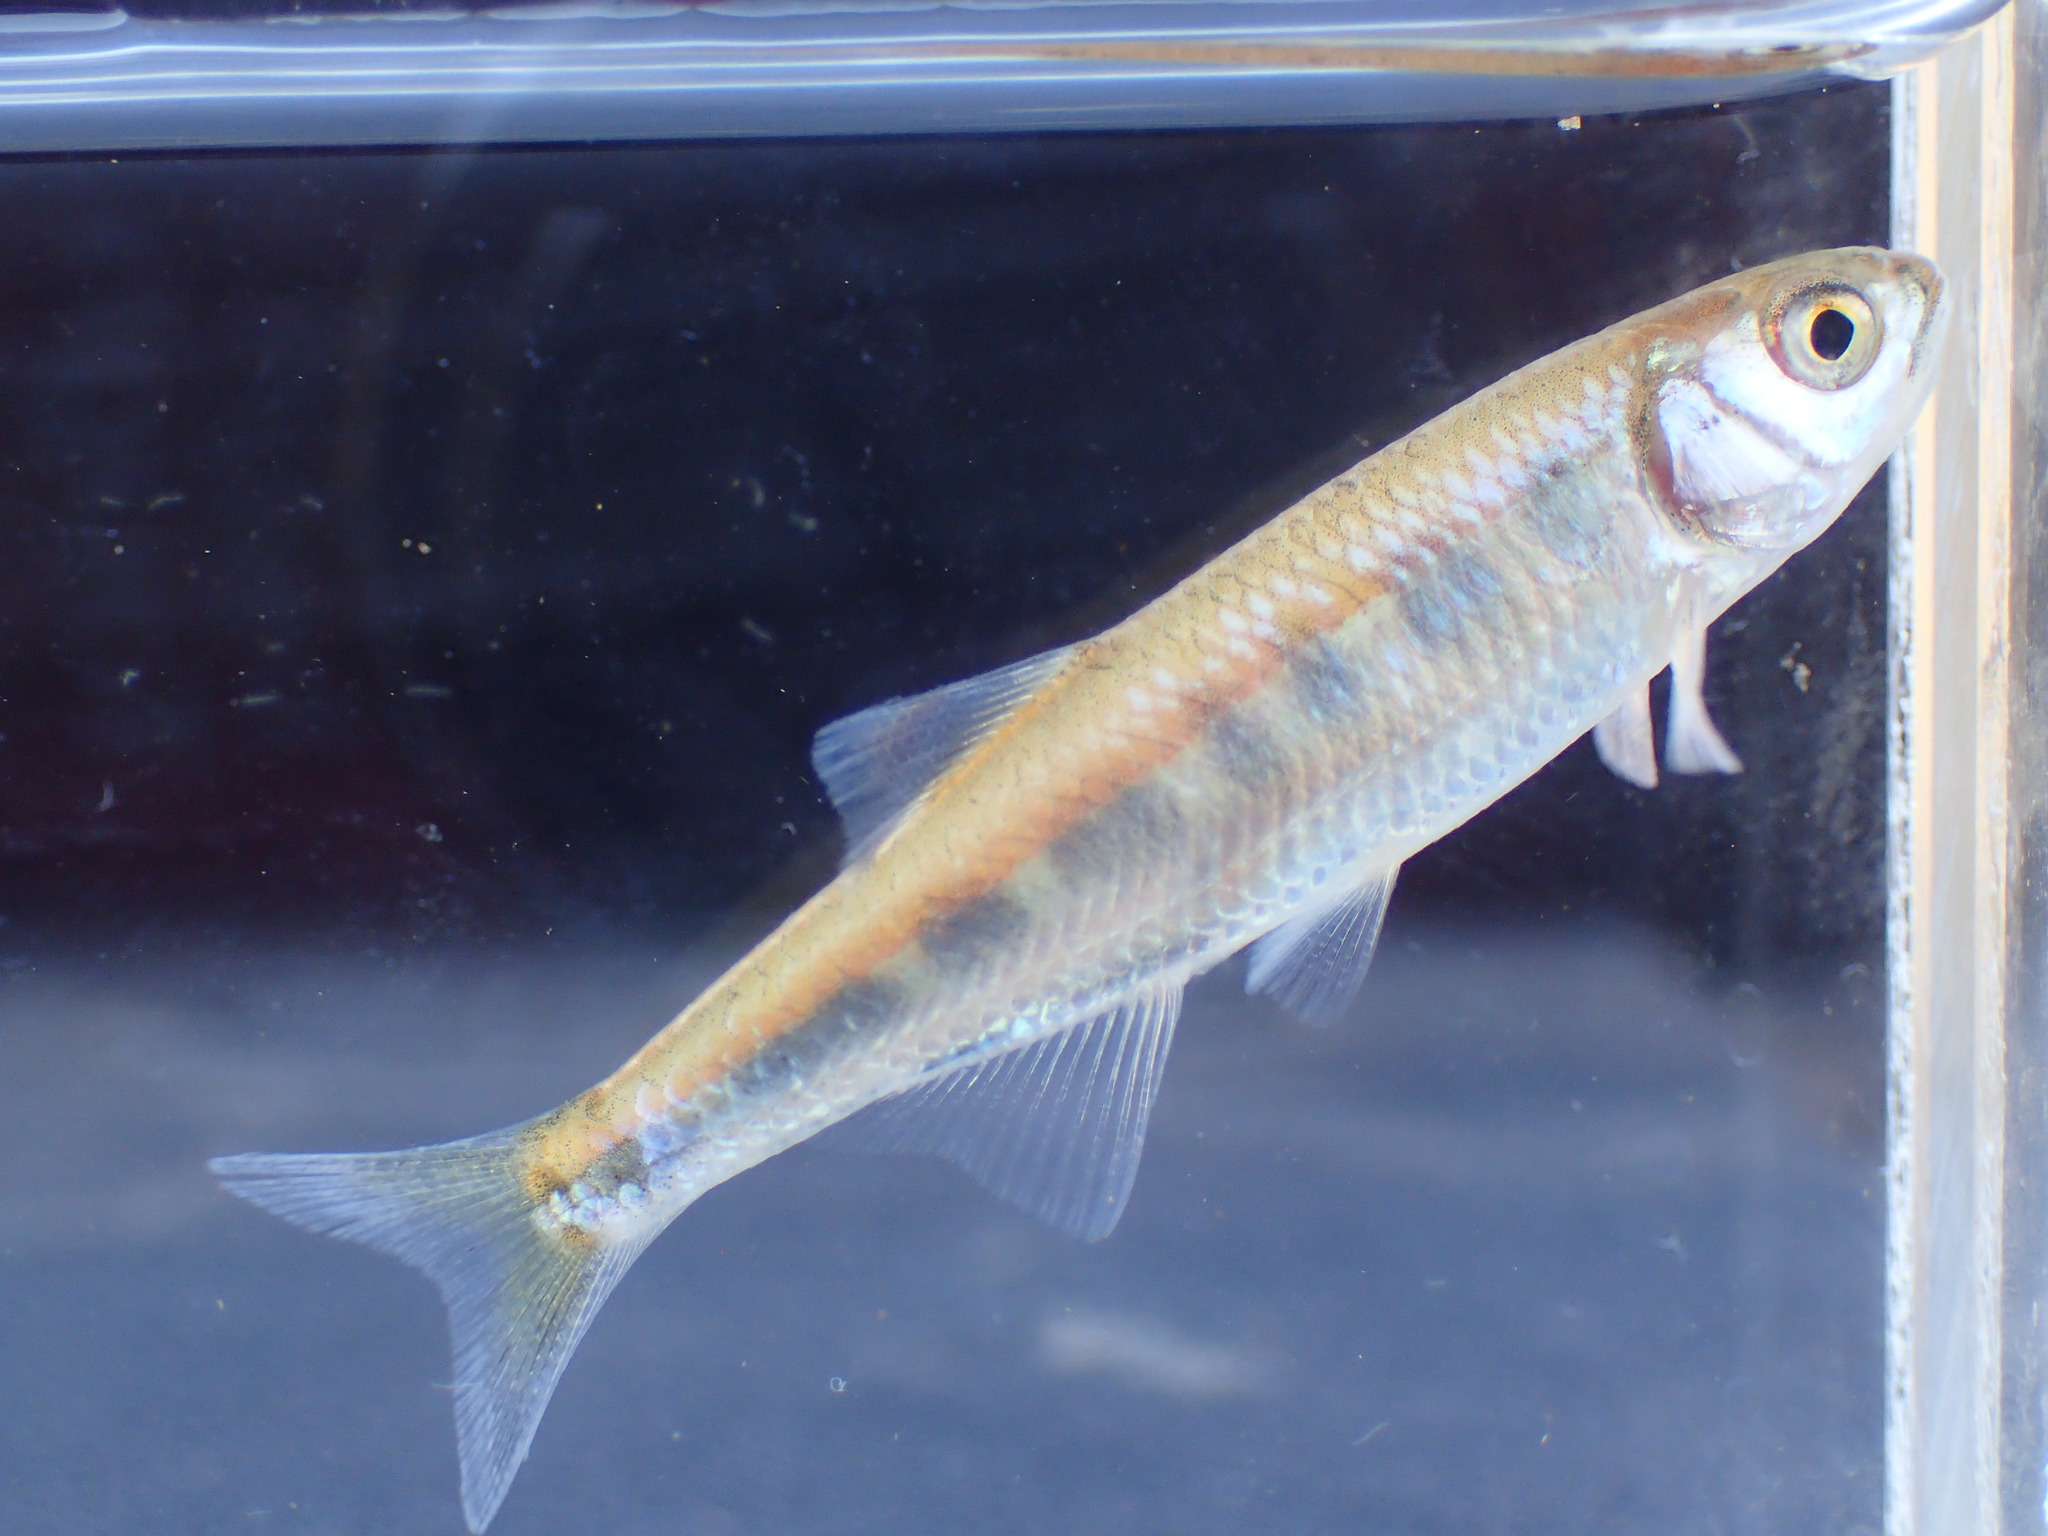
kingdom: Animalia
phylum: Chordata
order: Cypriniformes
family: Cyprinidae
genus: Opsaridium
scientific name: Opsaridium zambezense
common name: Barred minnow
